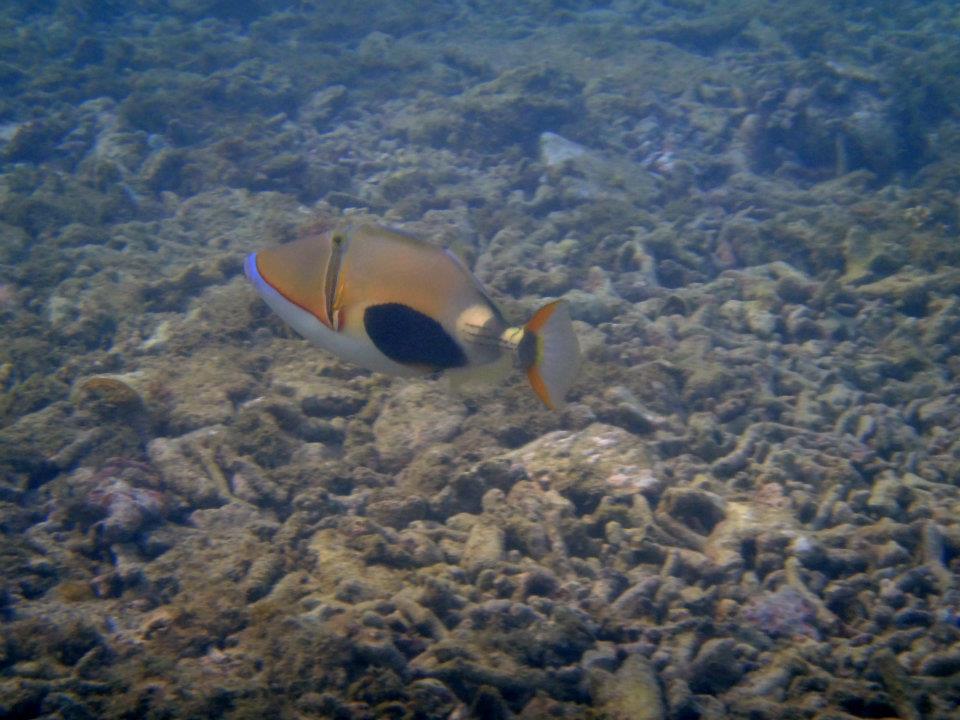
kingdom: Animalia
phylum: Chordata
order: Tetraodontiformes
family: Balistidae
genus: Rhinecanthus
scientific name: Rhinecanthus verrucosus
